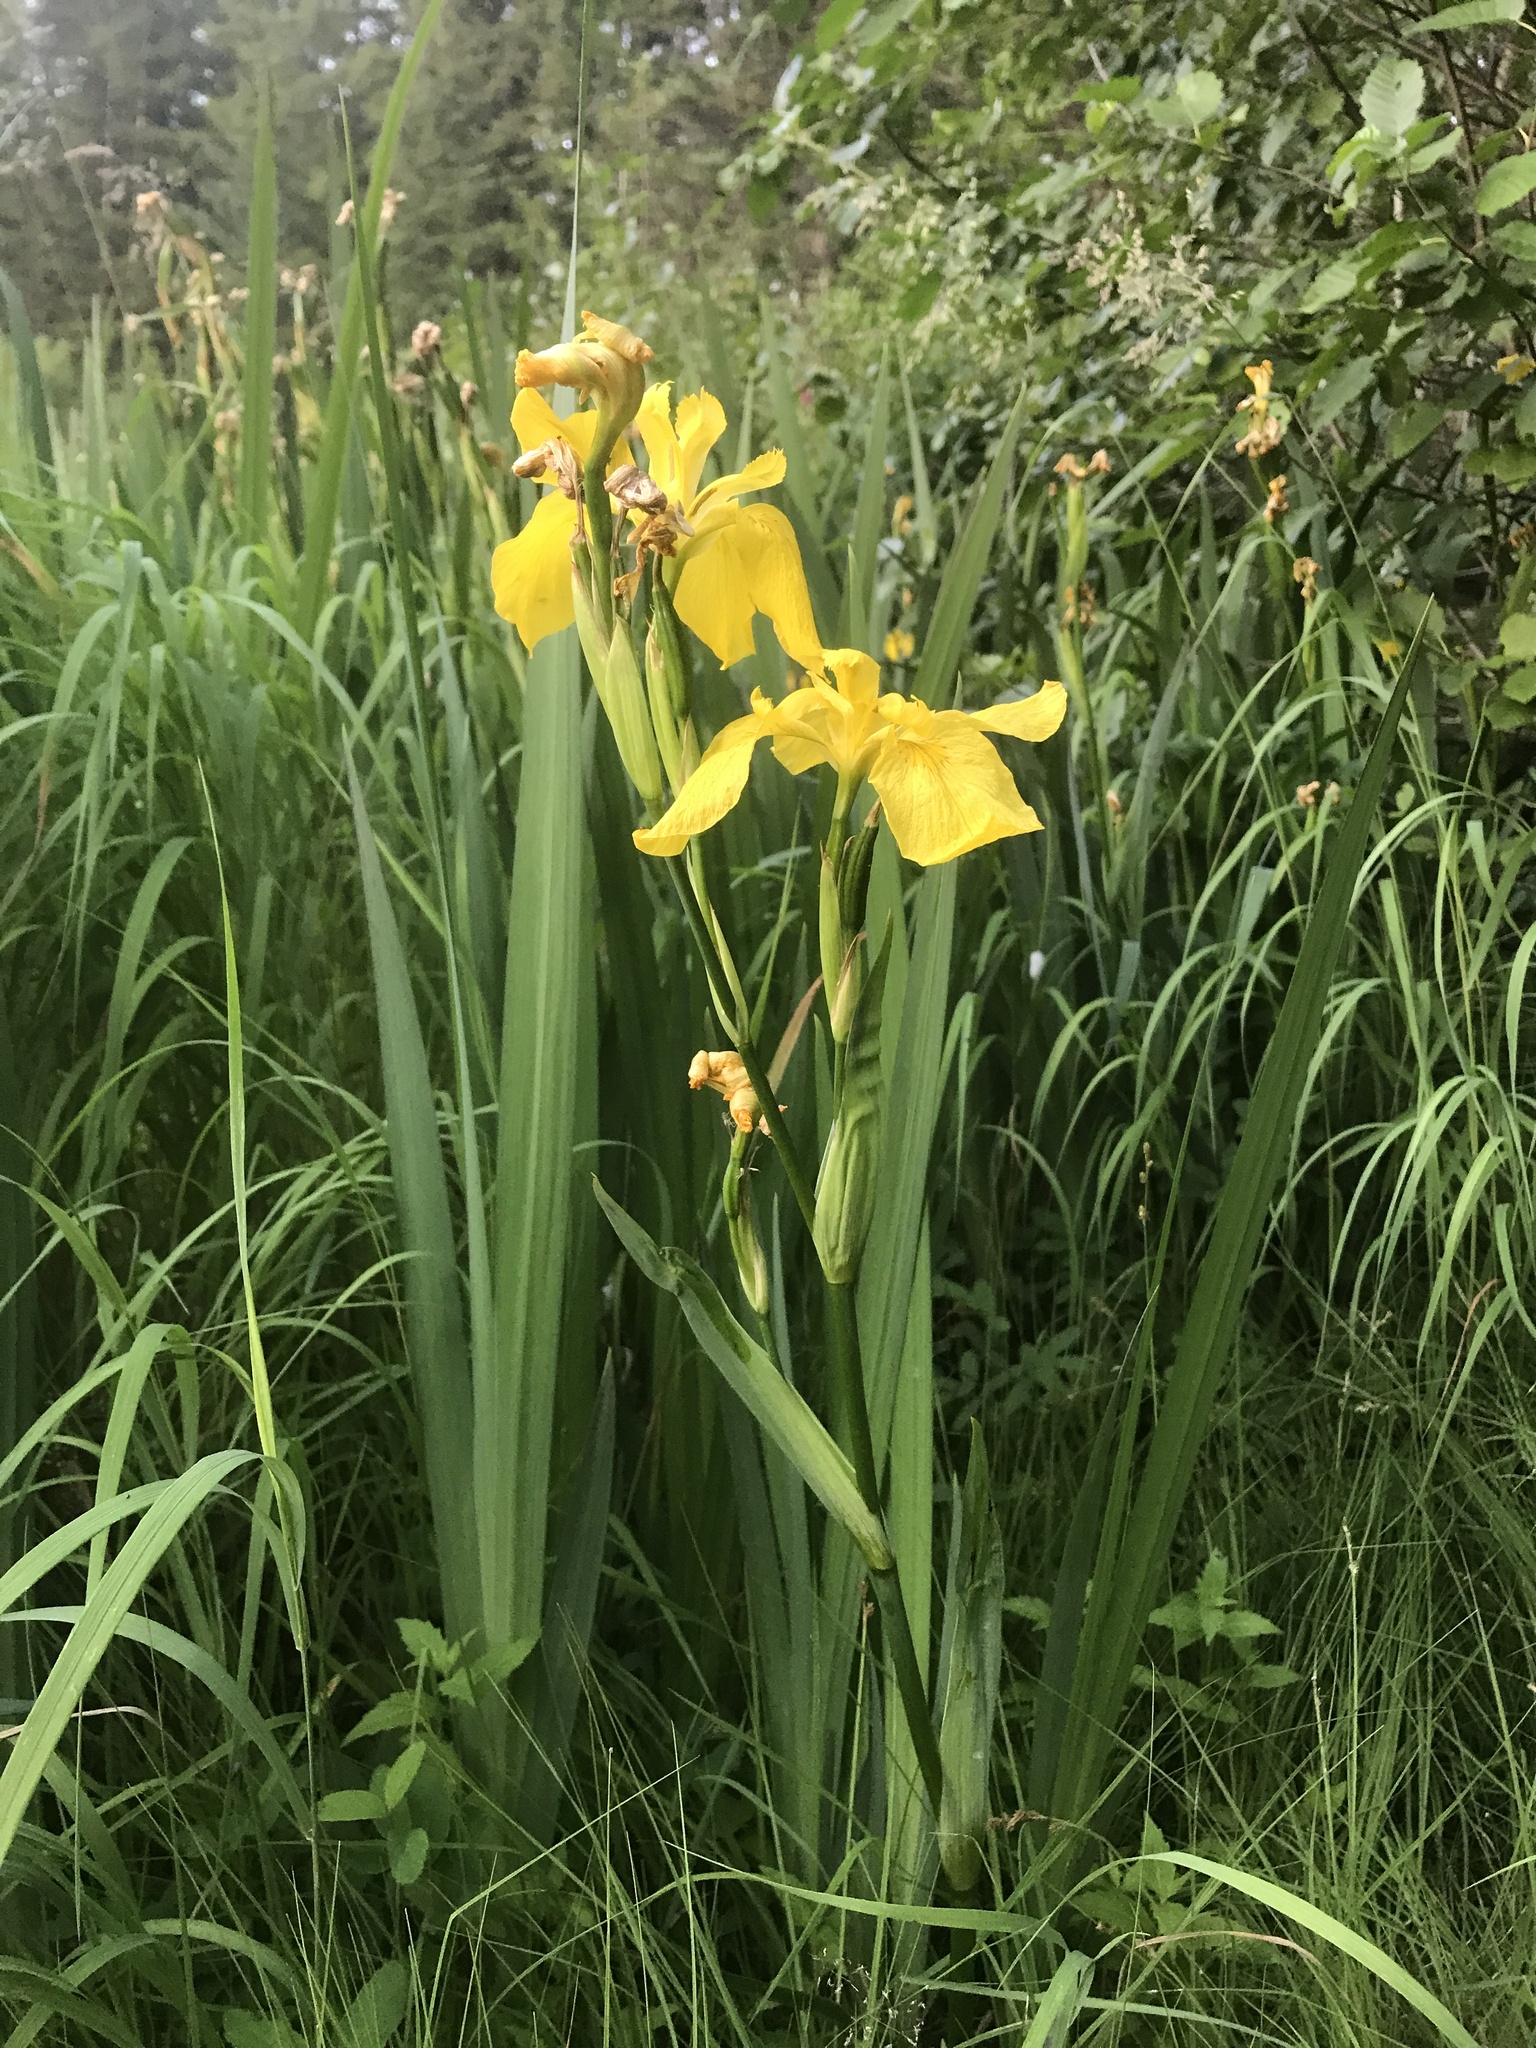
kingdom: Plantae
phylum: Tracheophyta
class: Liliopsida
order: Asparagales
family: Iridaceae
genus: Iris
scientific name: Iris pseudacorus
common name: Yellow flag
